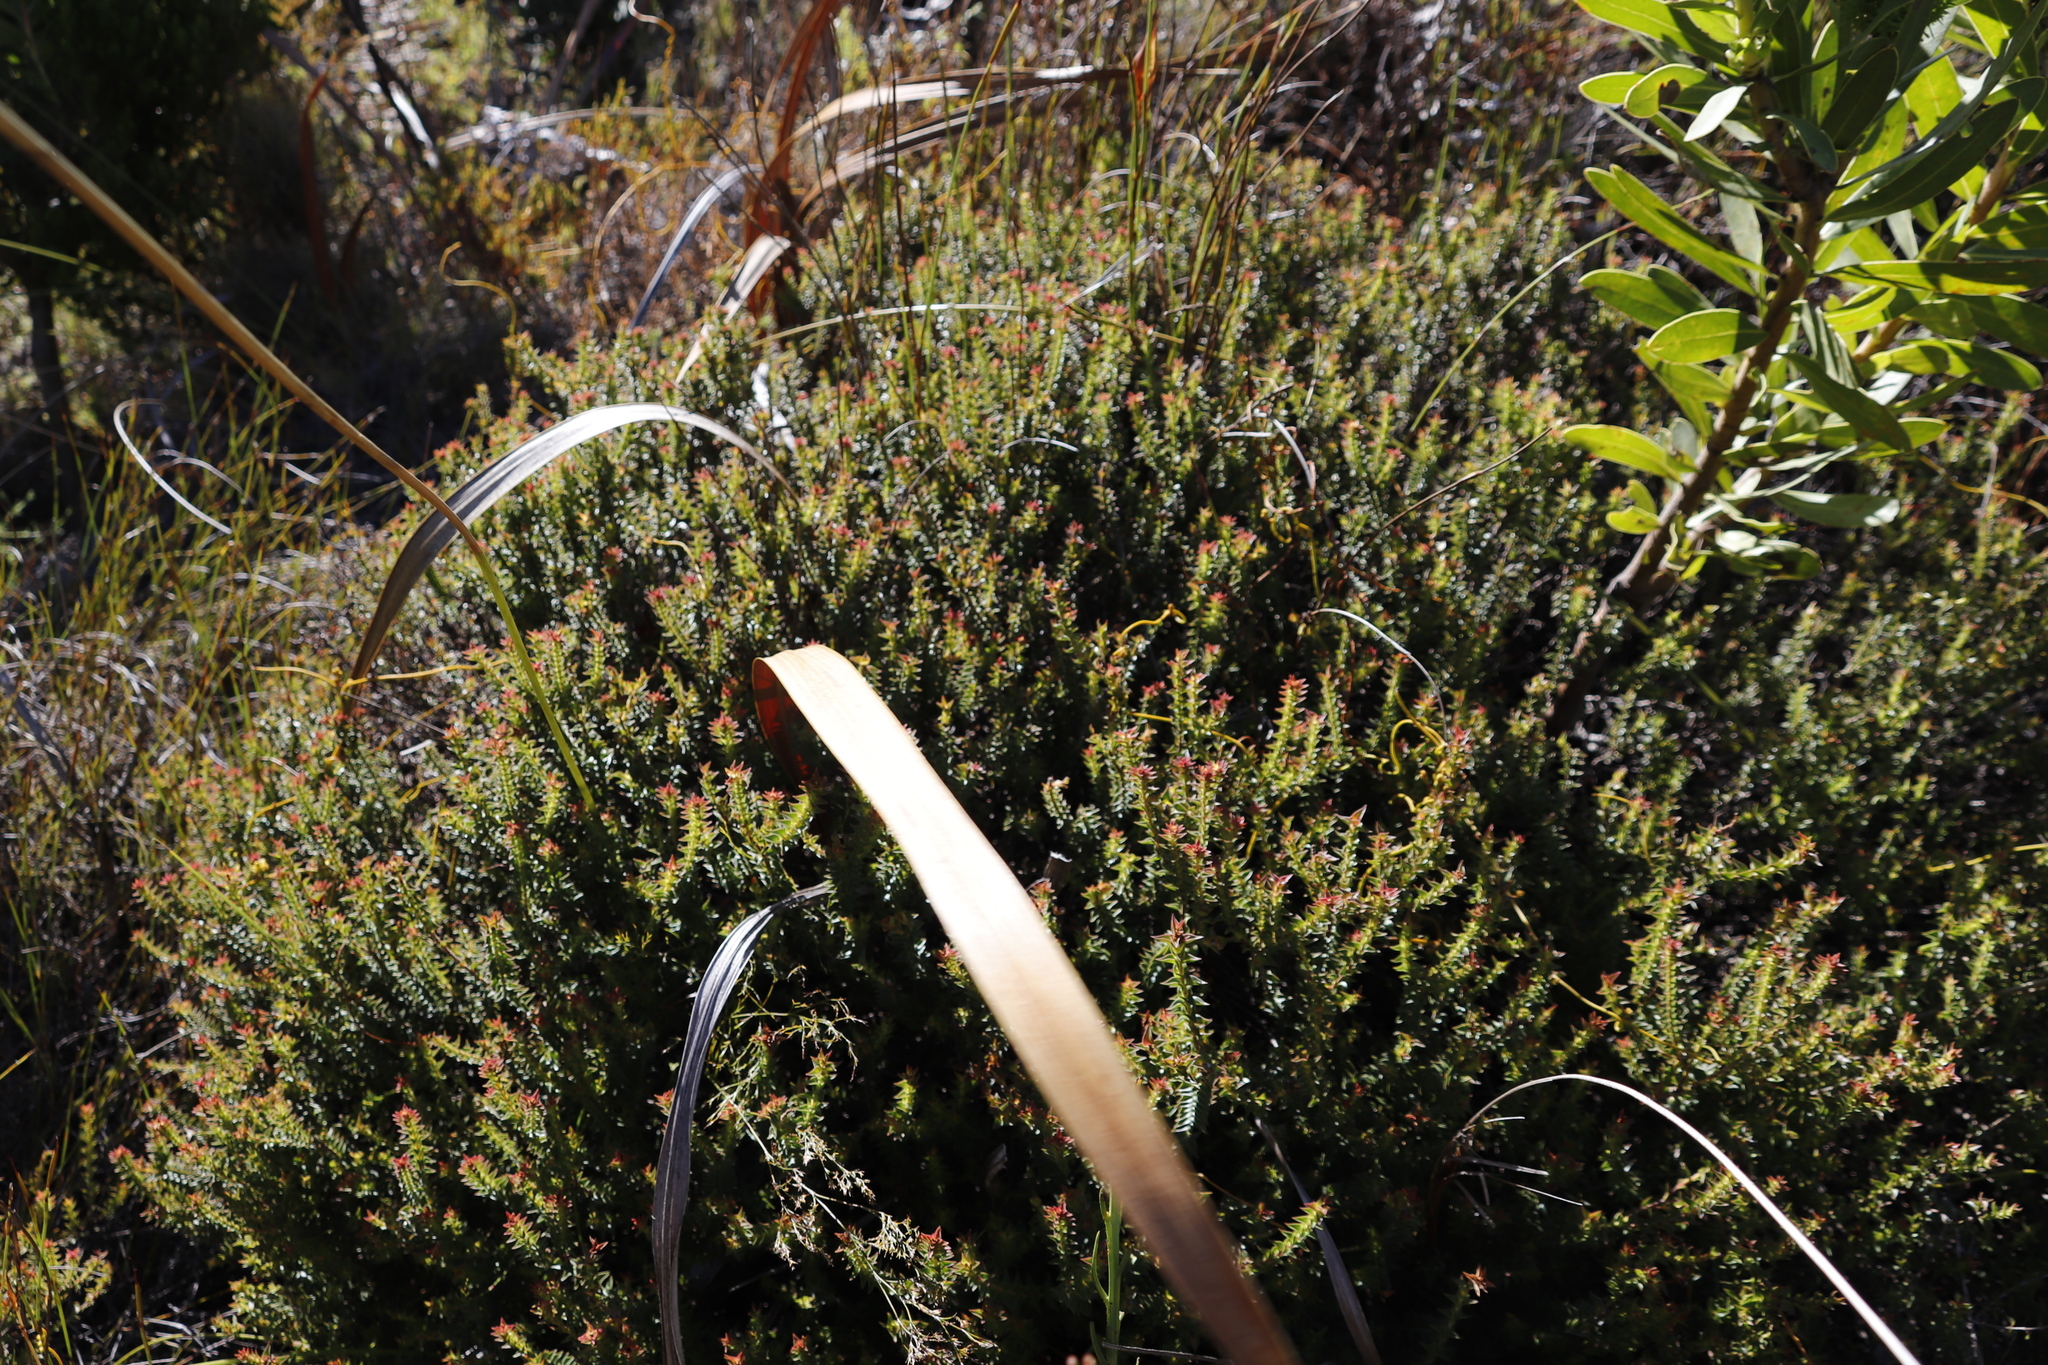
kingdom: Plantae
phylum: Tracheophyta
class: Magnoliopsida
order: Myrtales
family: Penaeaceae
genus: Penaea
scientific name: Penaea mucronata
